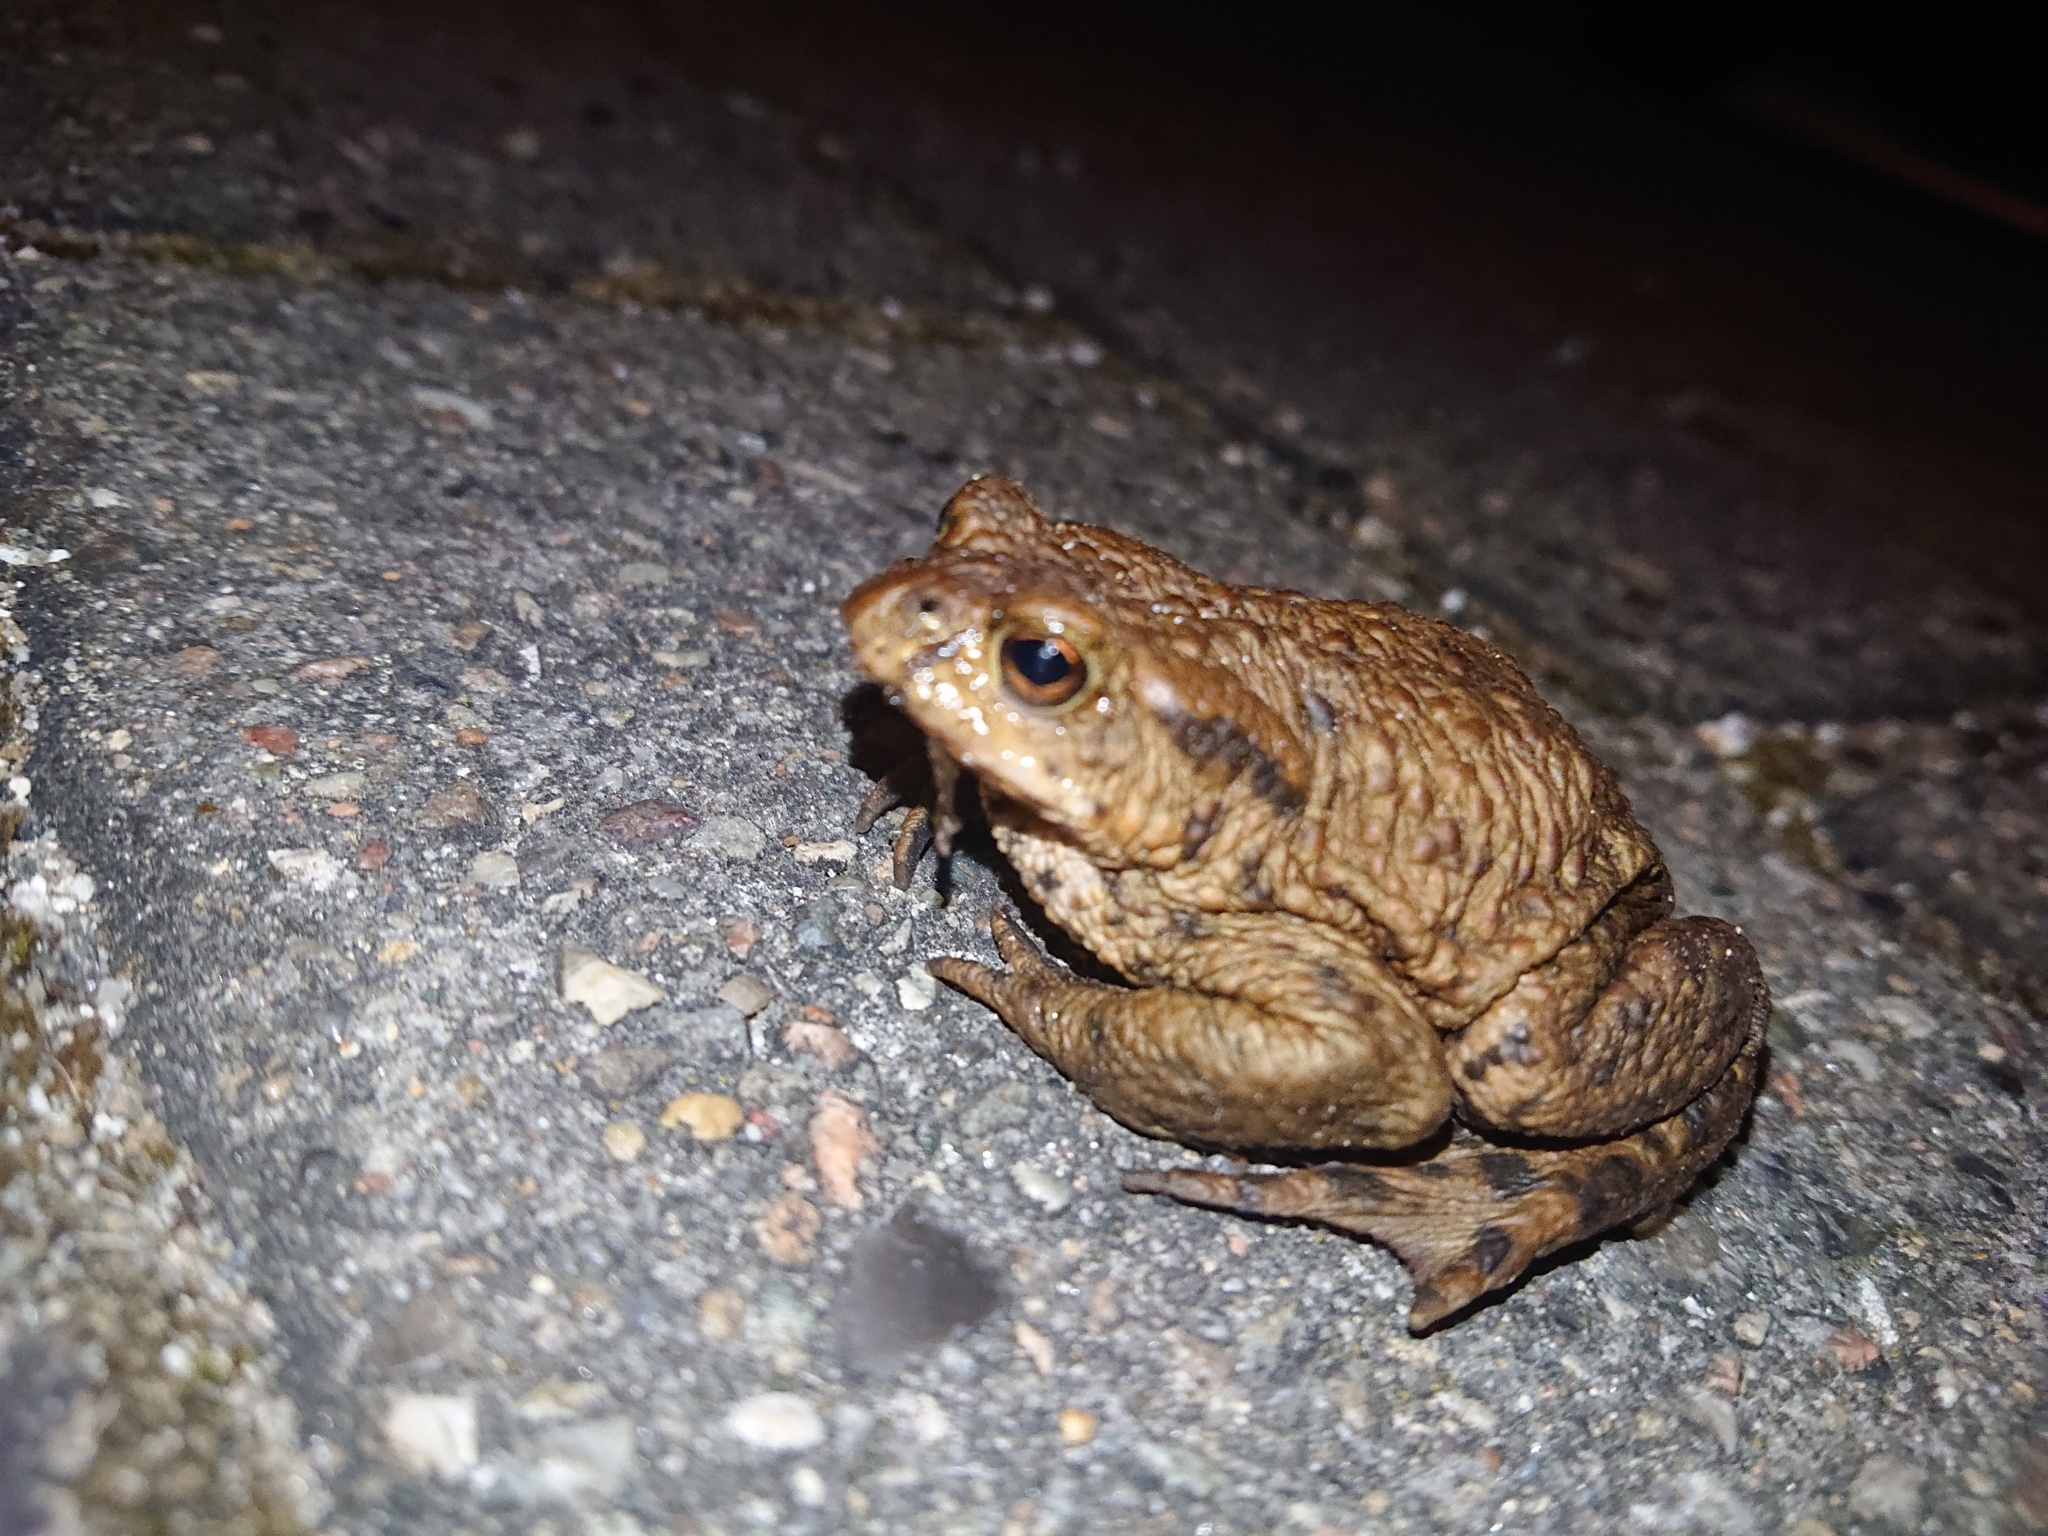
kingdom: Animalia
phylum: Chordata
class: Amphibia
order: Anura
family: Bufonidae
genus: Bufo
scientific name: Bufo bufo
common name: Common toad
